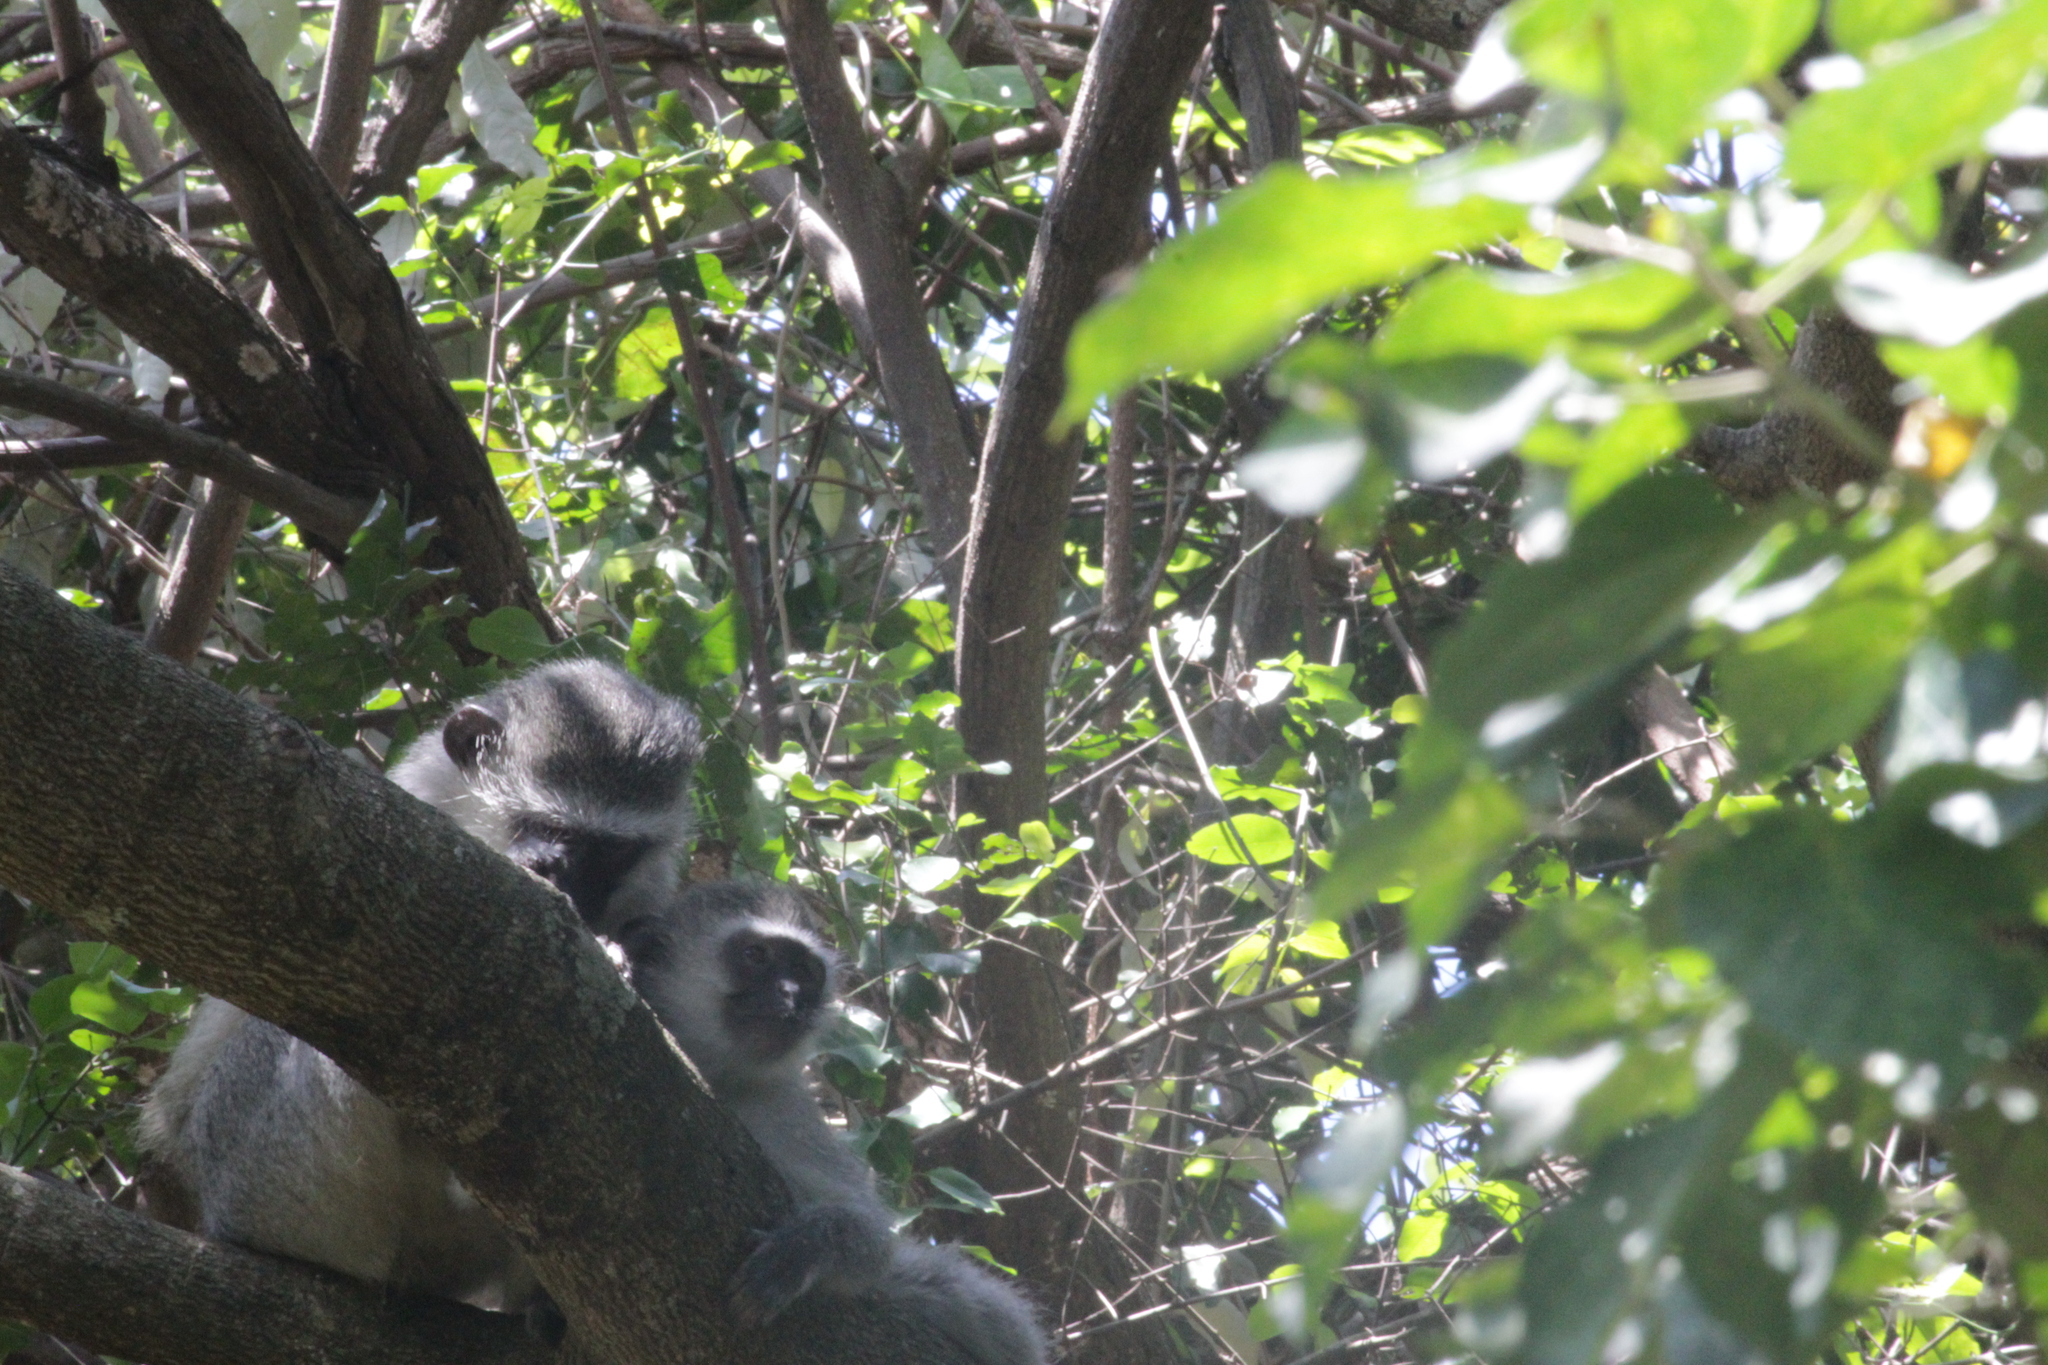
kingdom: Animalia
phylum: Chordata
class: Mammalia
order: Primates
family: Cercopithecidae
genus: Chlorocebus
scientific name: Chlorocebus pygerythrus
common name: Vervet monkey
